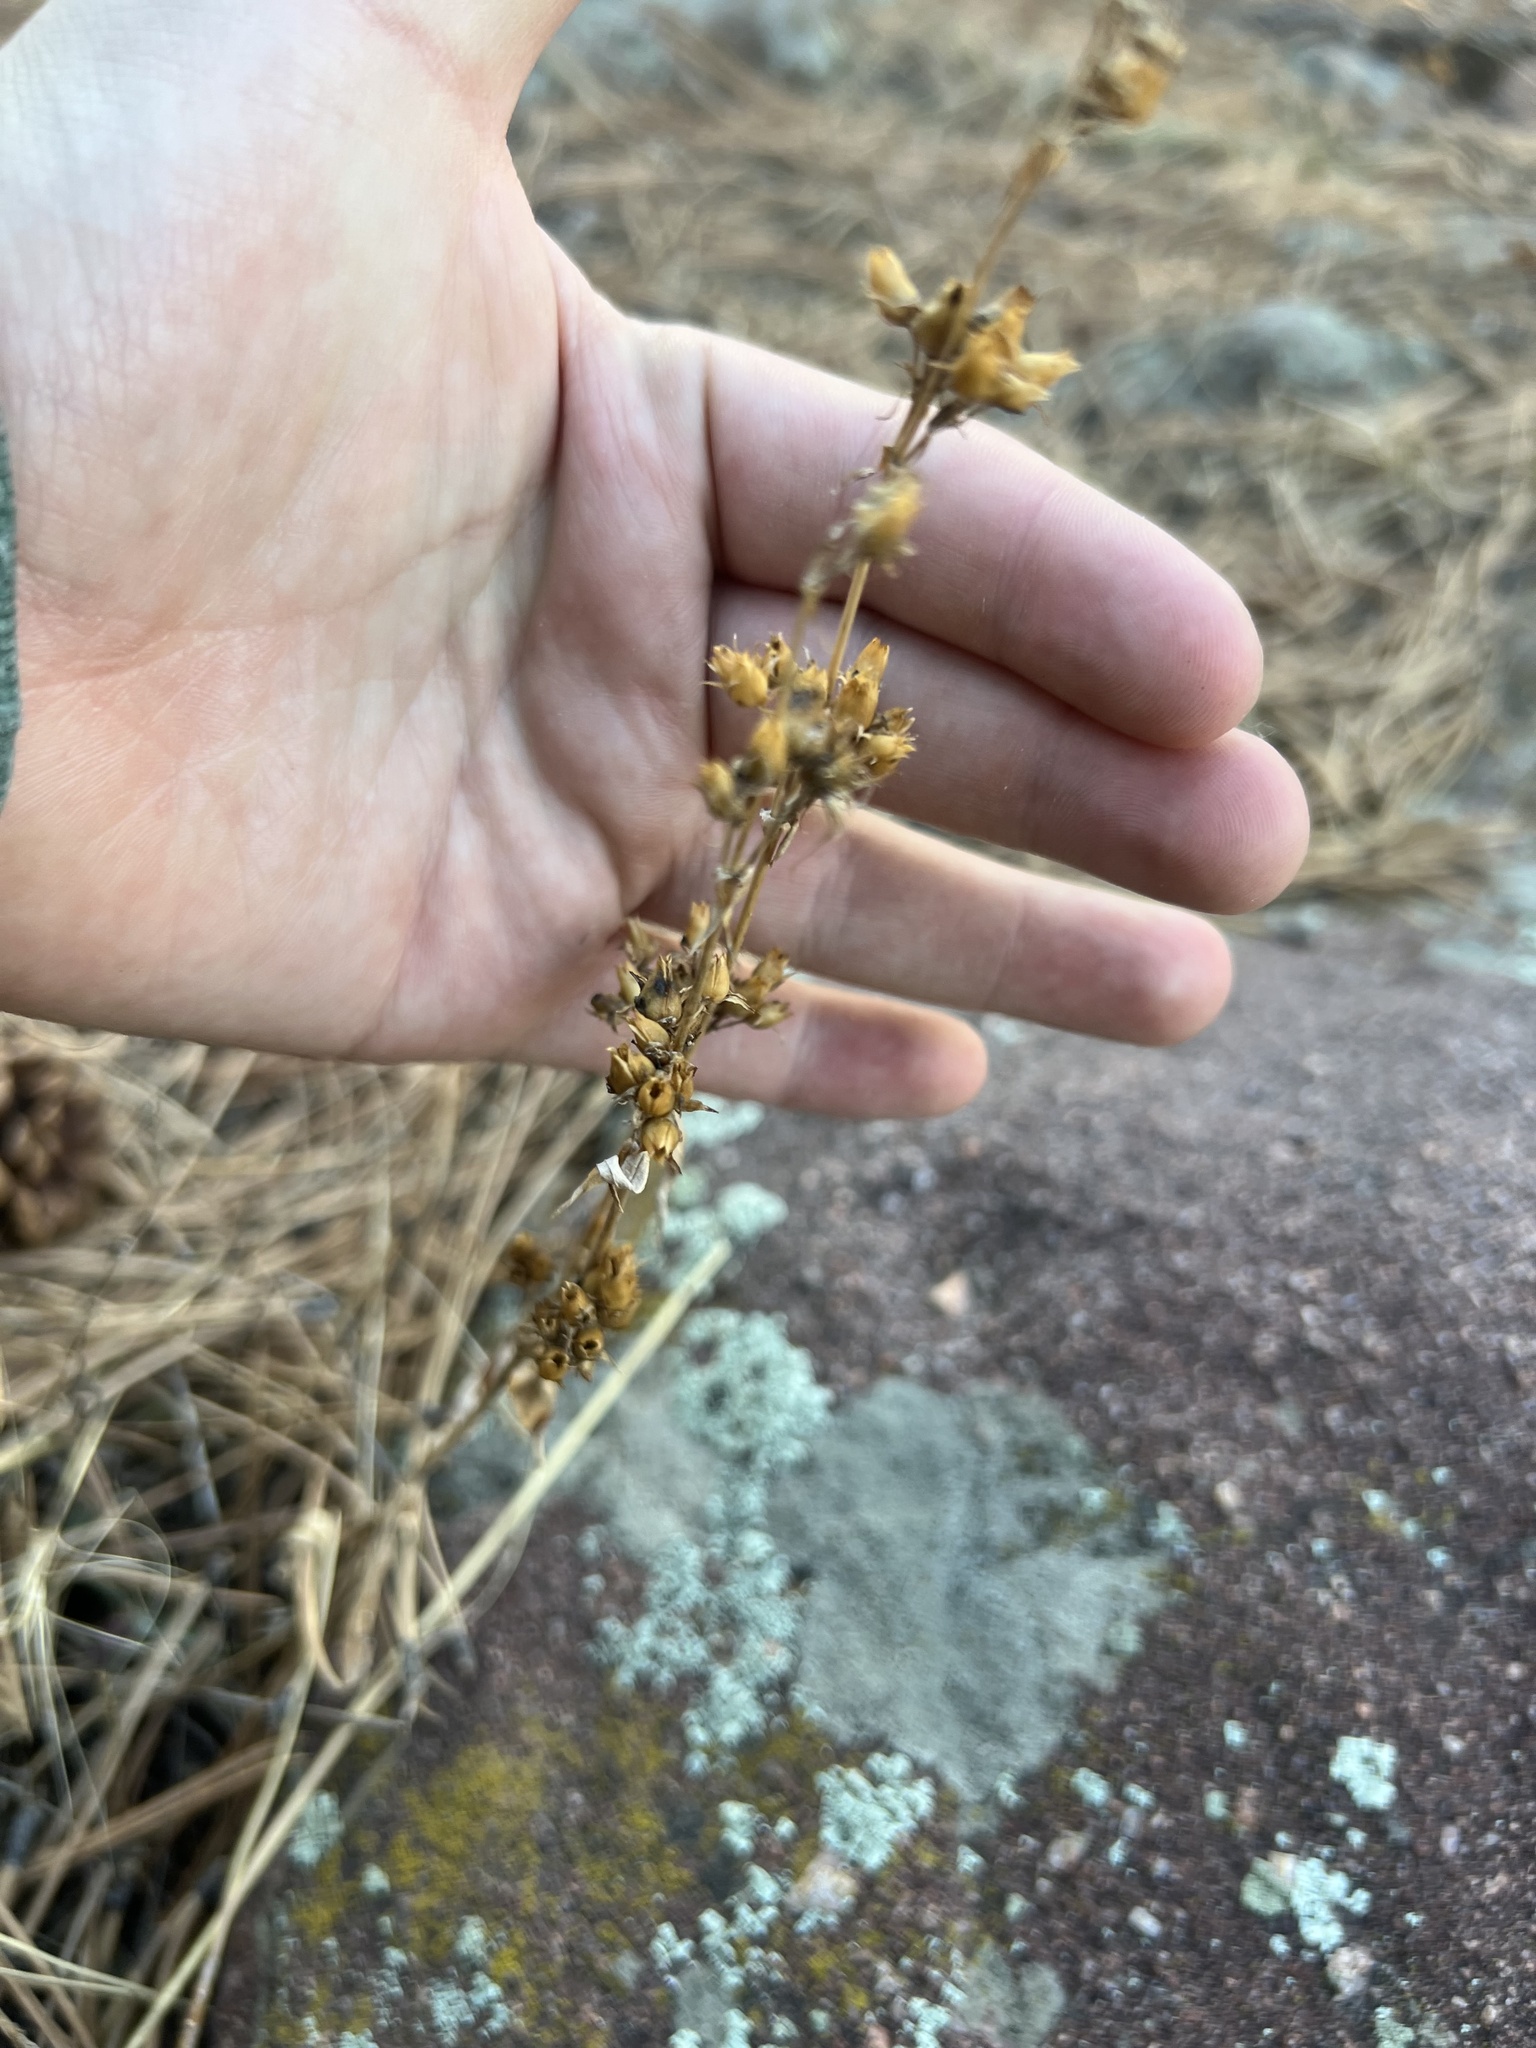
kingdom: Plantae
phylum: Tracheophyta
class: Magnoliopsida
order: Lamiales
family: Plantaginaceae
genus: Penstemon
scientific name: Penstemon virens
